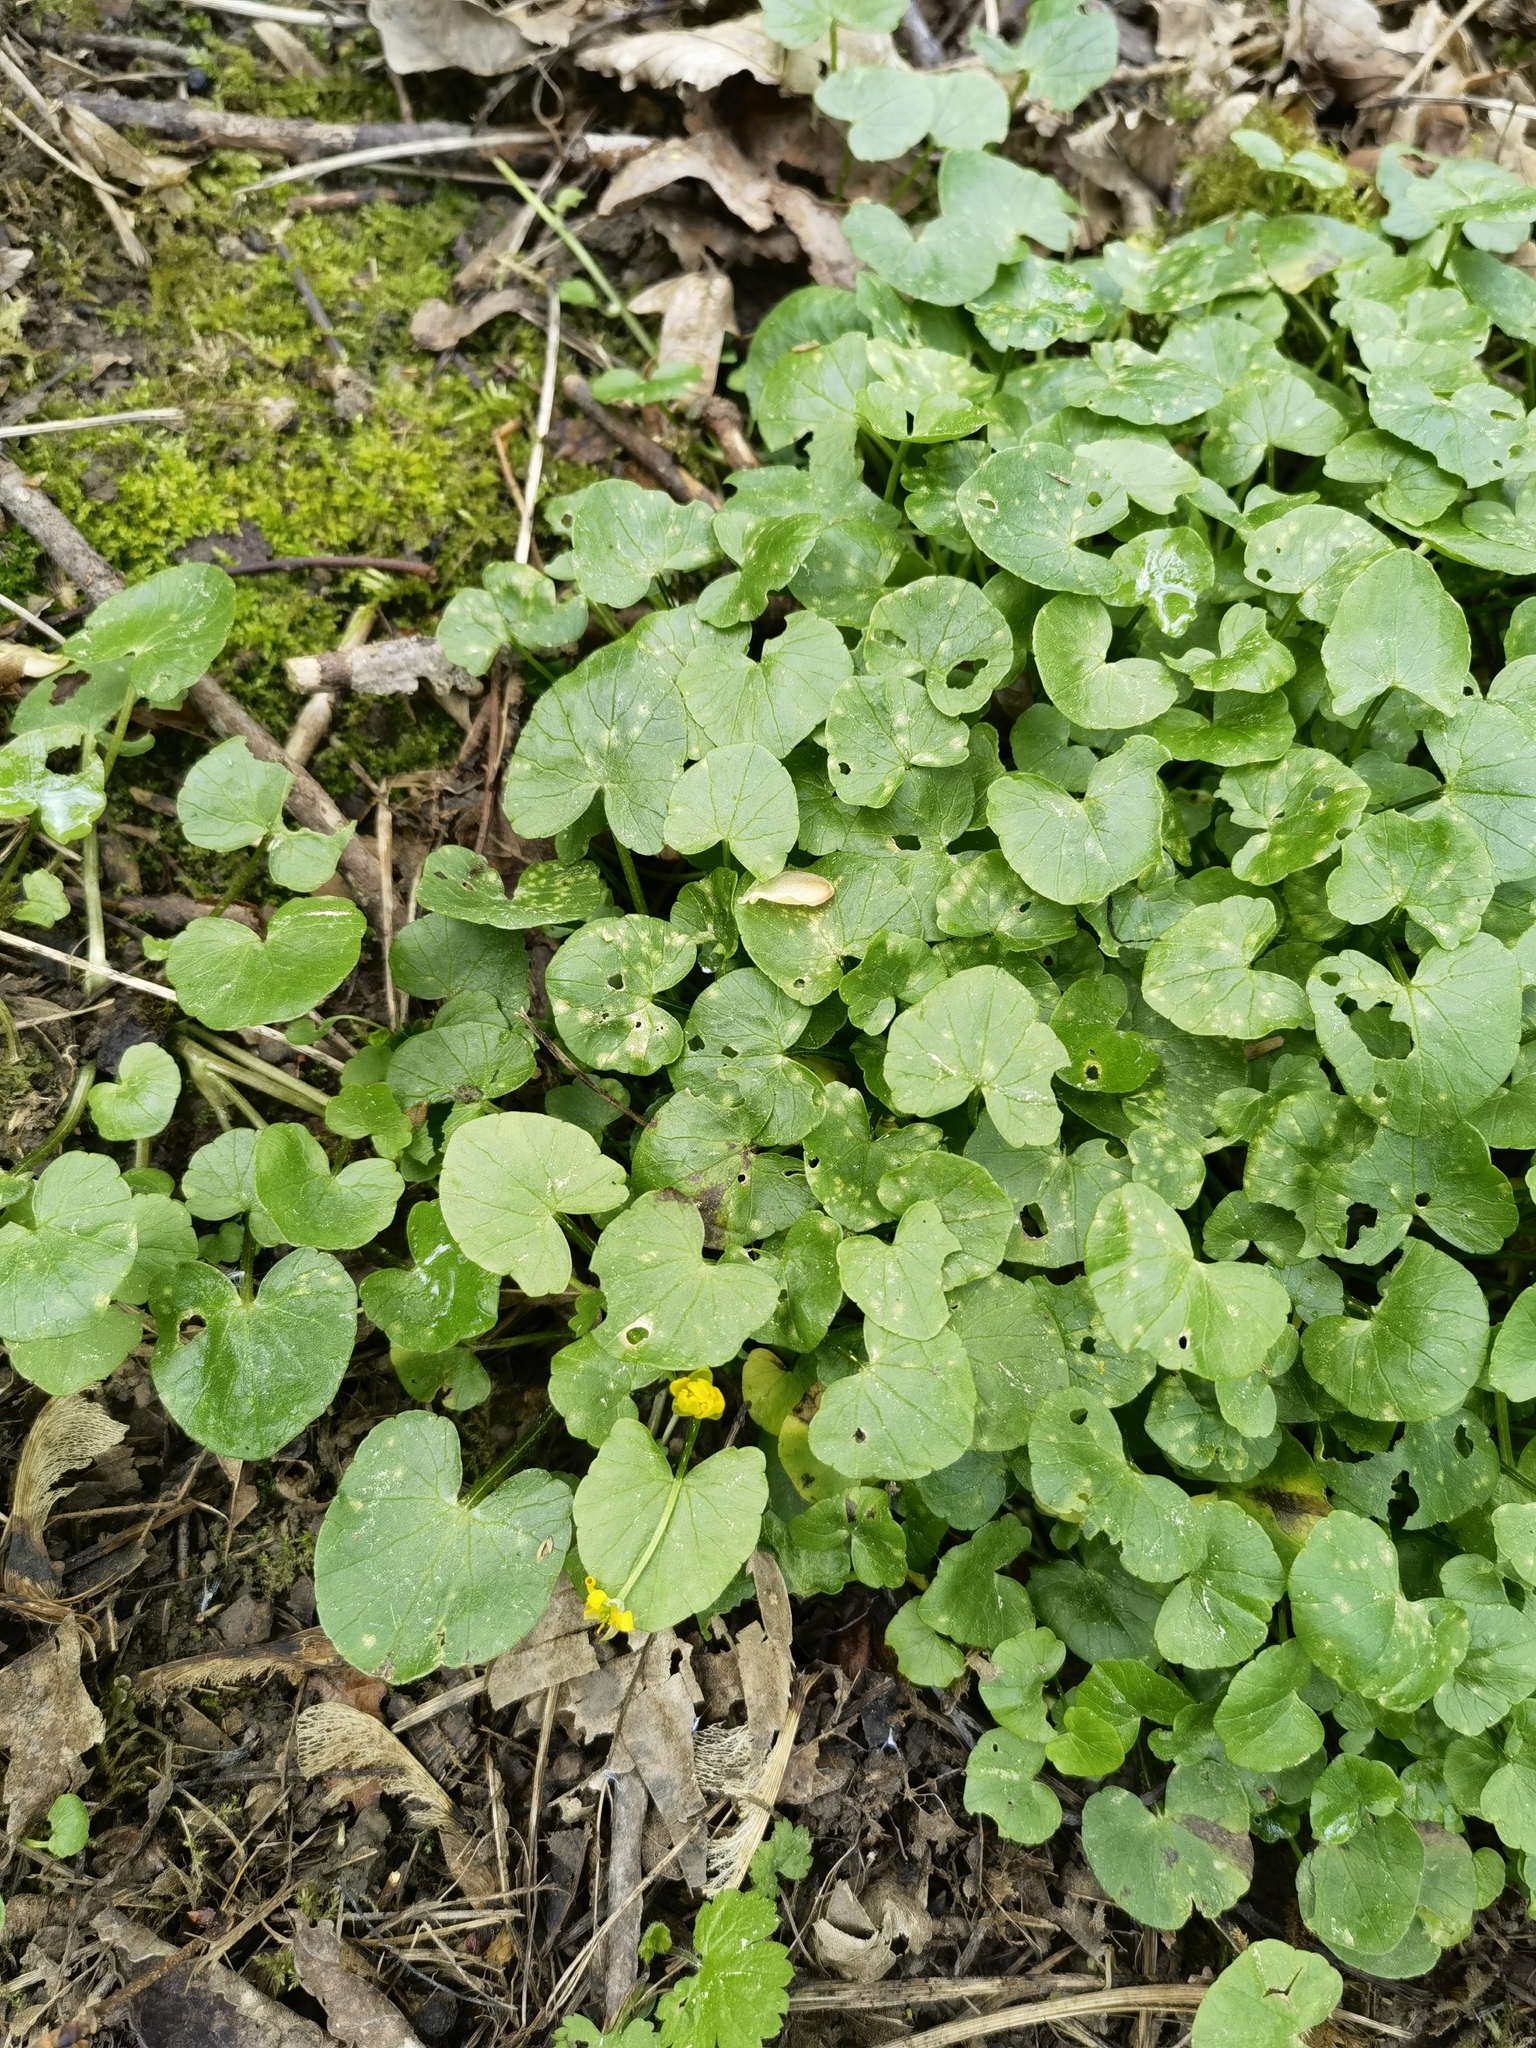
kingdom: Plantae
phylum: Tracheophyta
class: Magnoliopsida
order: Ranunculales
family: Ranunculaceae
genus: Ficaria
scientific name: Ficaria verna
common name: Lesser celandine
